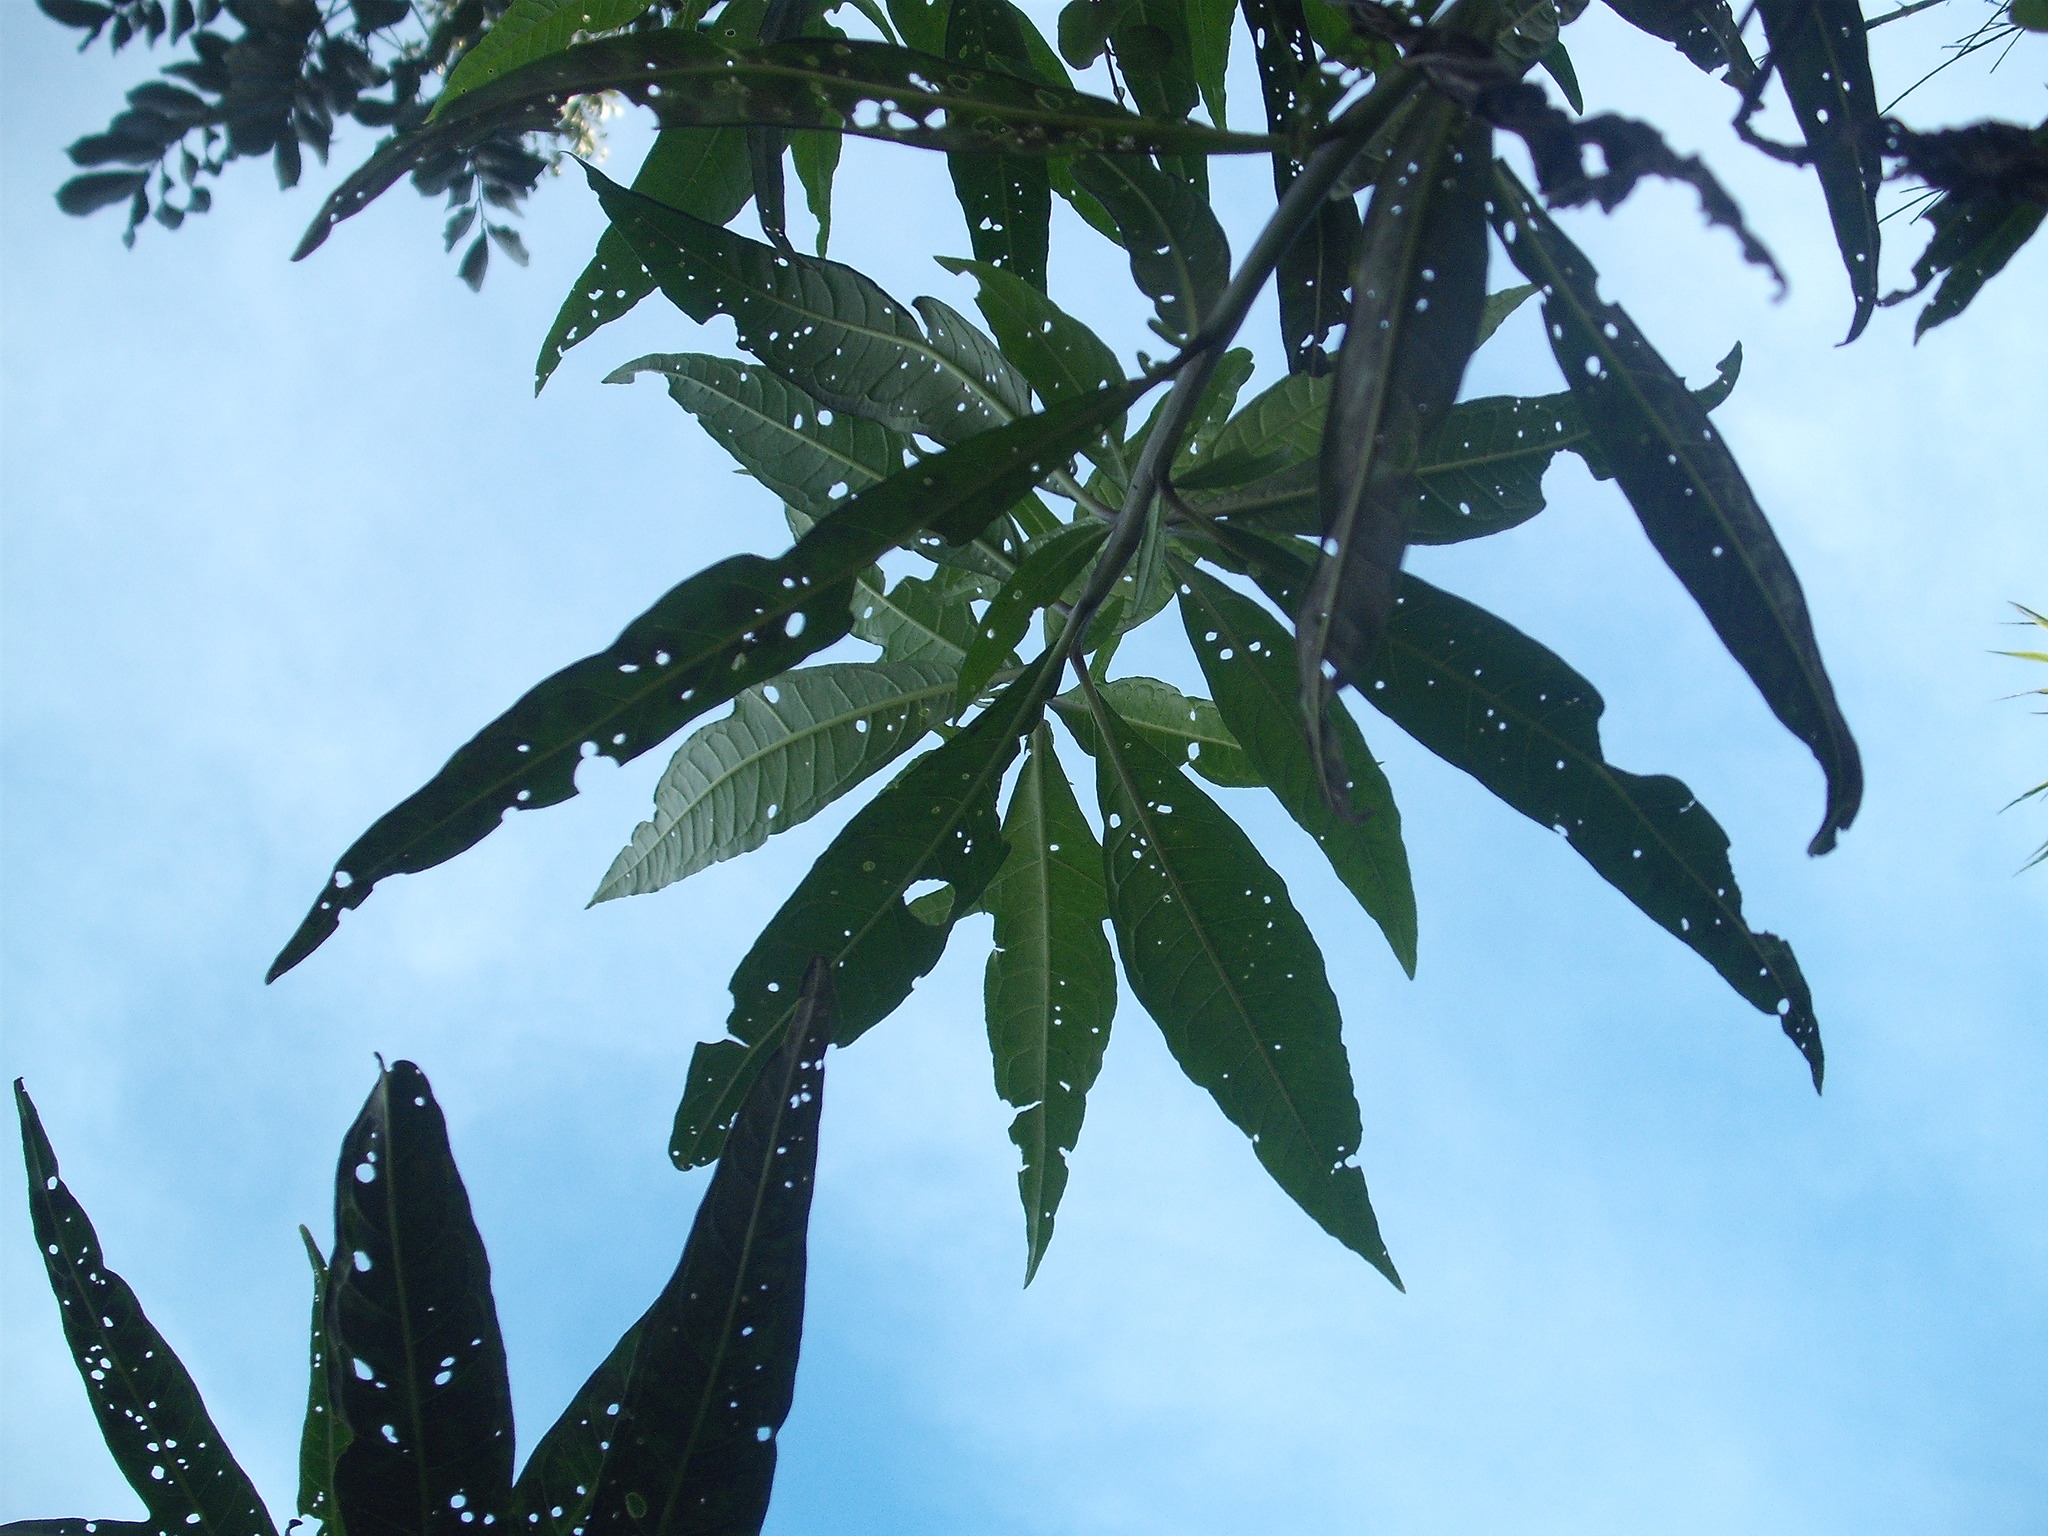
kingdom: Animalia
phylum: Arthropoda
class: Insecta
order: Coleoptera
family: Chrysomelidae
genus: Psylliodes
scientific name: Psylliodes brettinghami
